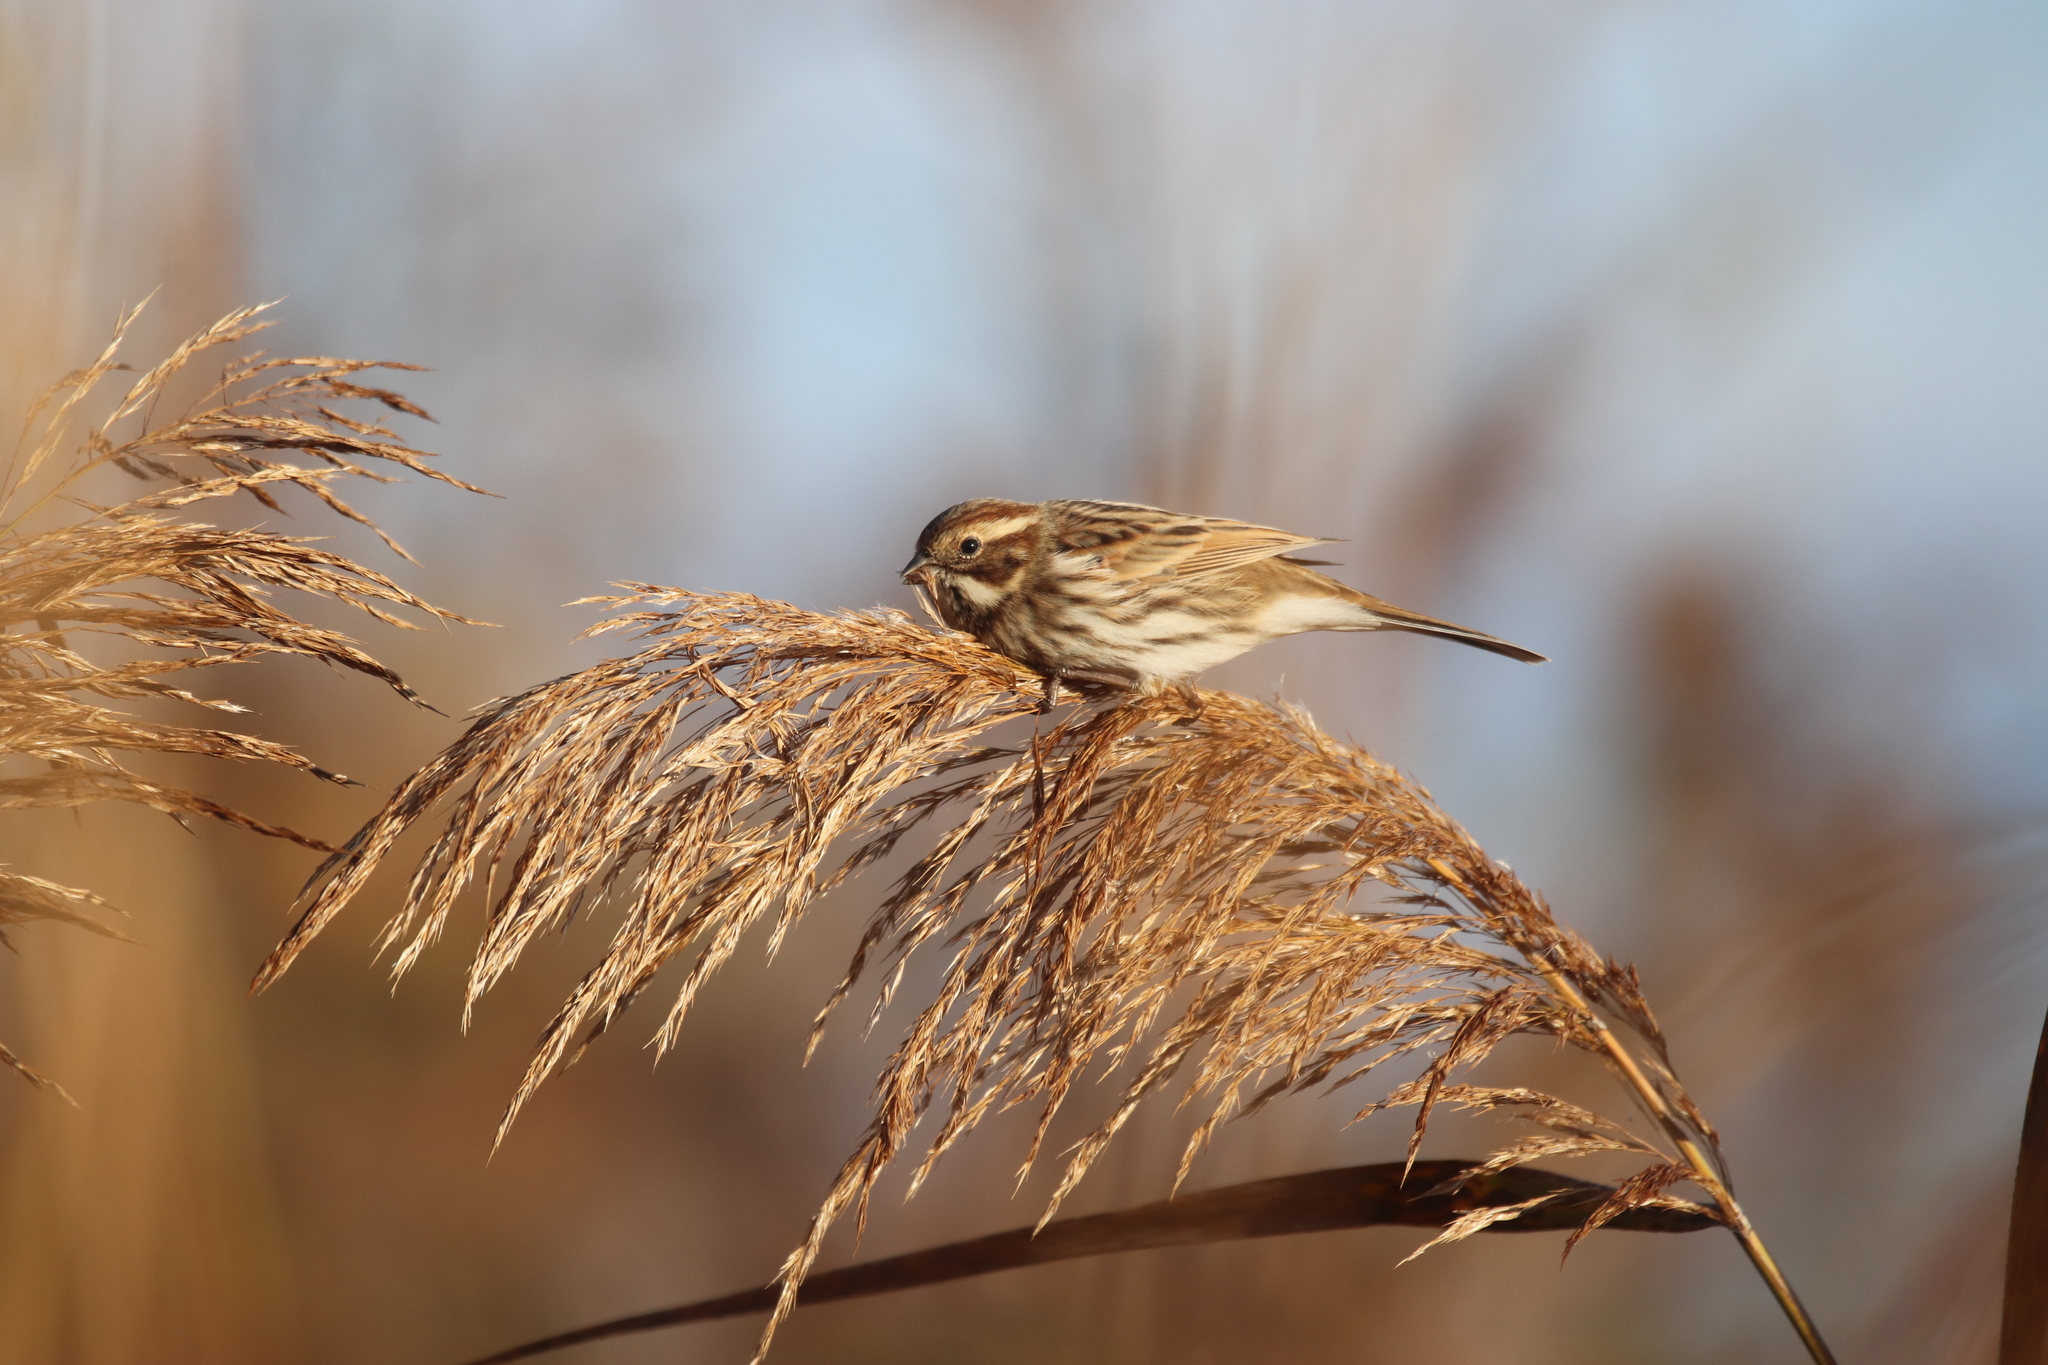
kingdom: Animalia
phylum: Chordata
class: Aves
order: Passeriformes
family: Emberizidae
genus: Emberiza
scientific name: Emberiza schoeniclus
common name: Reed bunting
